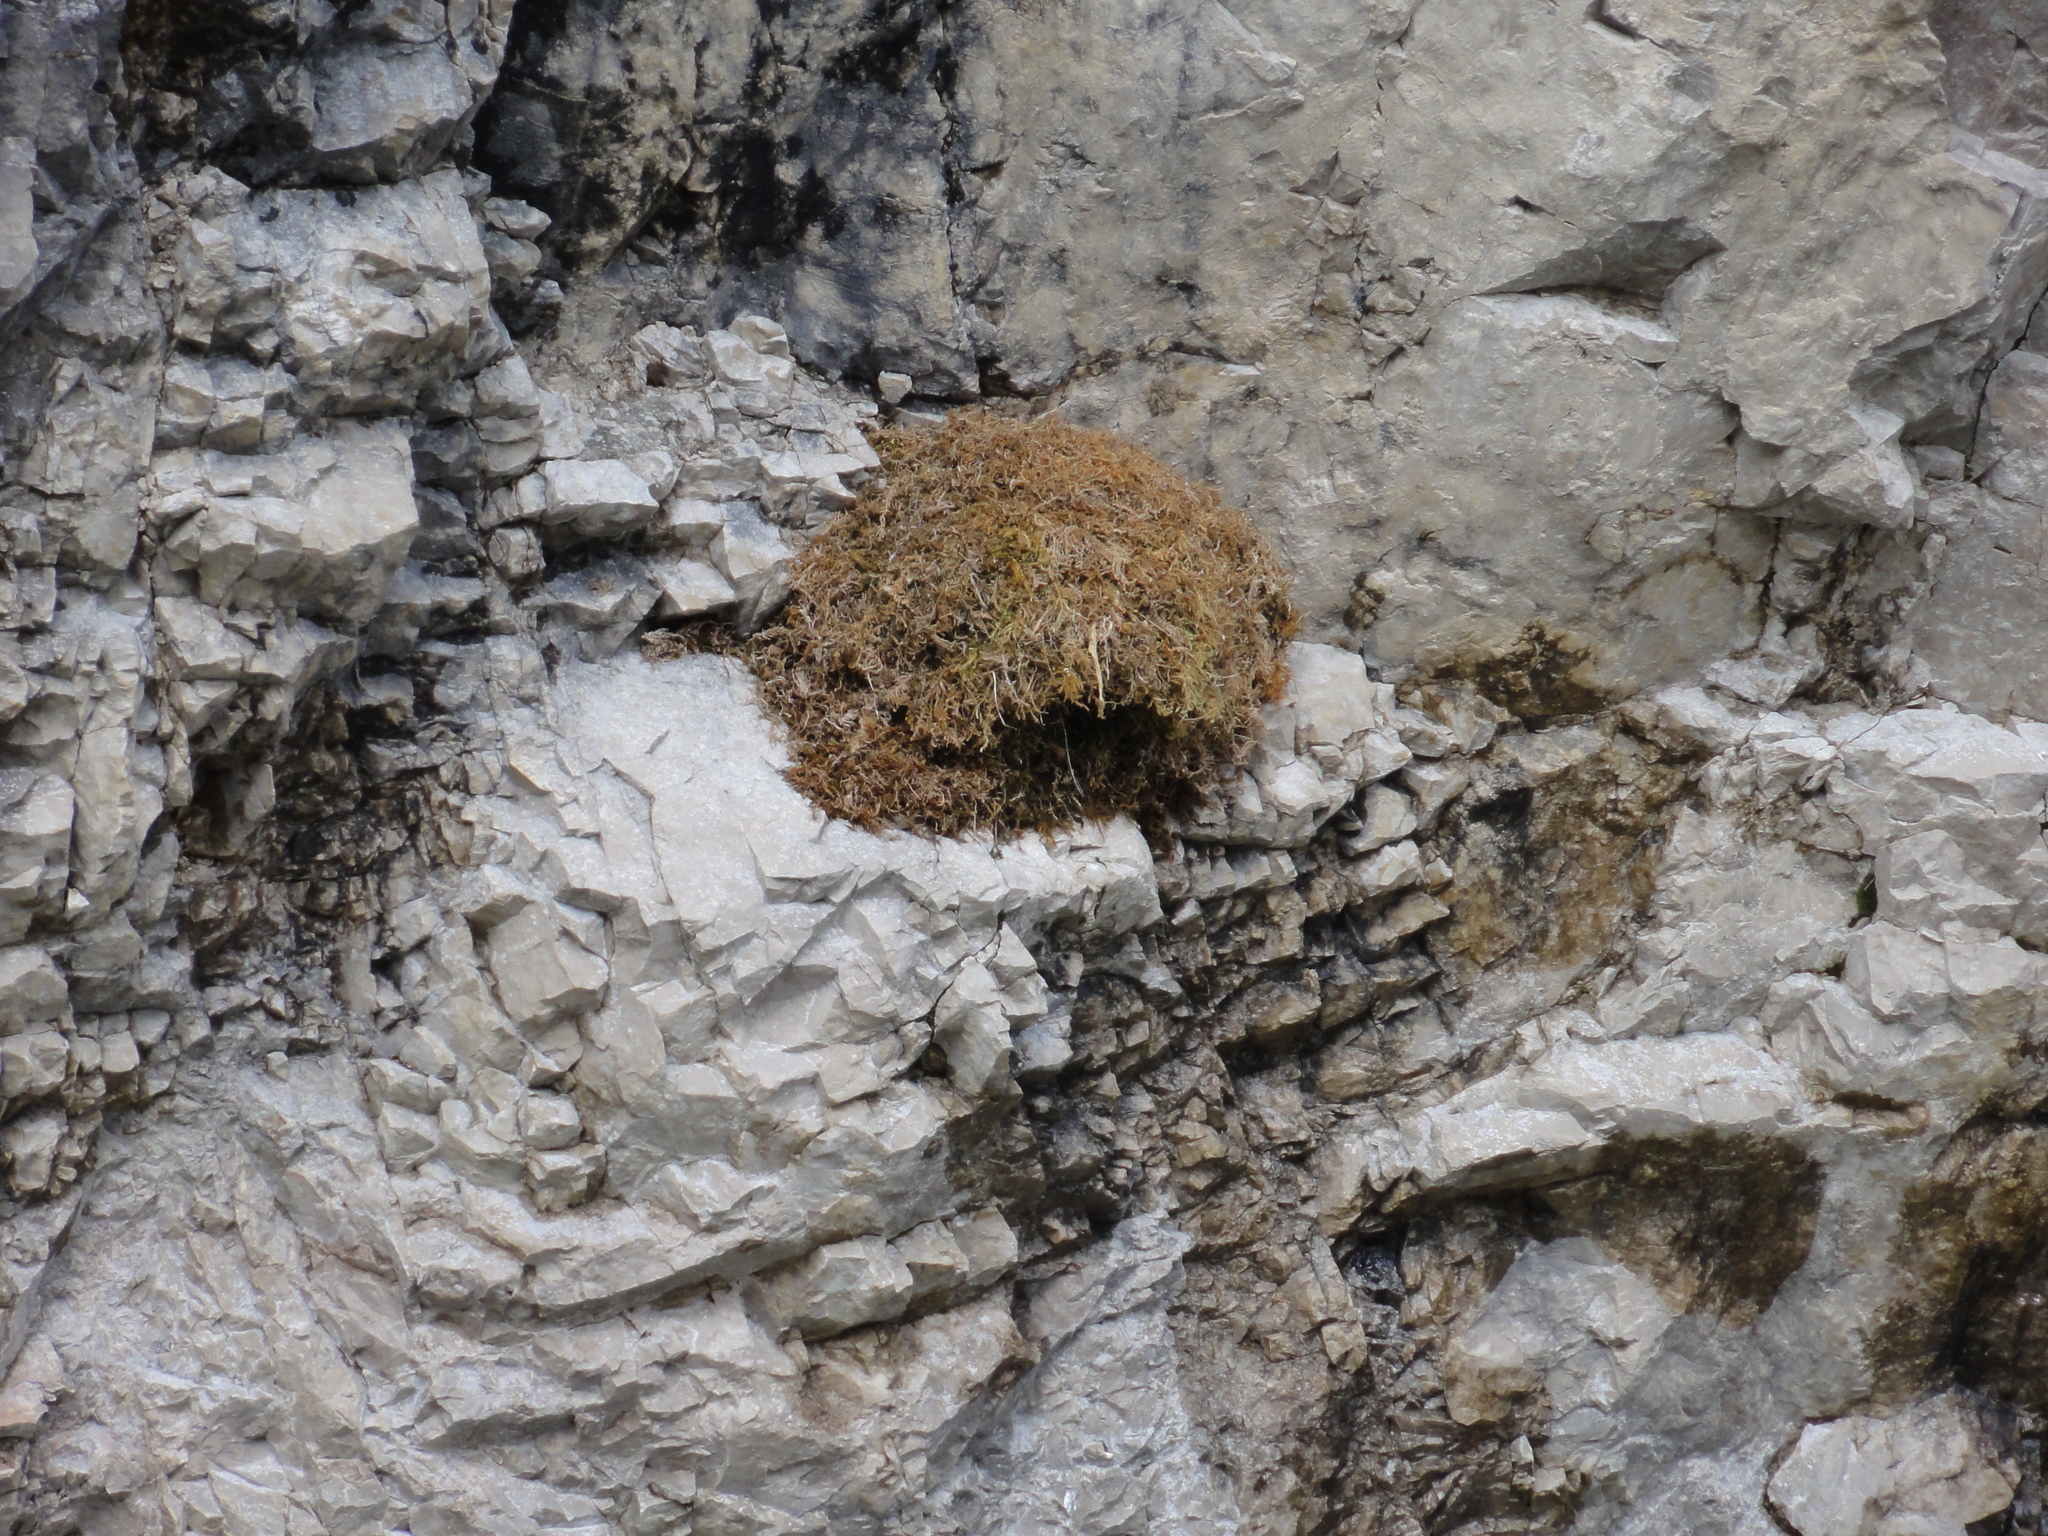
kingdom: Animalia
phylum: Chordata
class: Aves
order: Passeriformes
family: Cinclidae
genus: Cinclus
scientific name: Cinclus cinclus
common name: White-throated dipper
